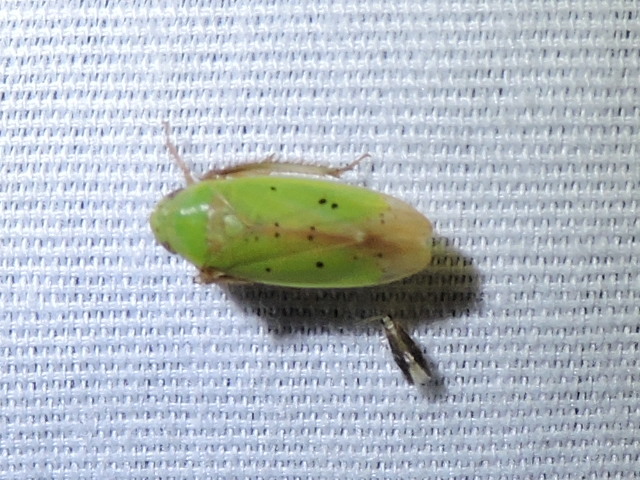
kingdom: Animalia
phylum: Arthropoda
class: Insecta
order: Hemiptera
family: Cicadellidae
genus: Ponana
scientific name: Ponana
